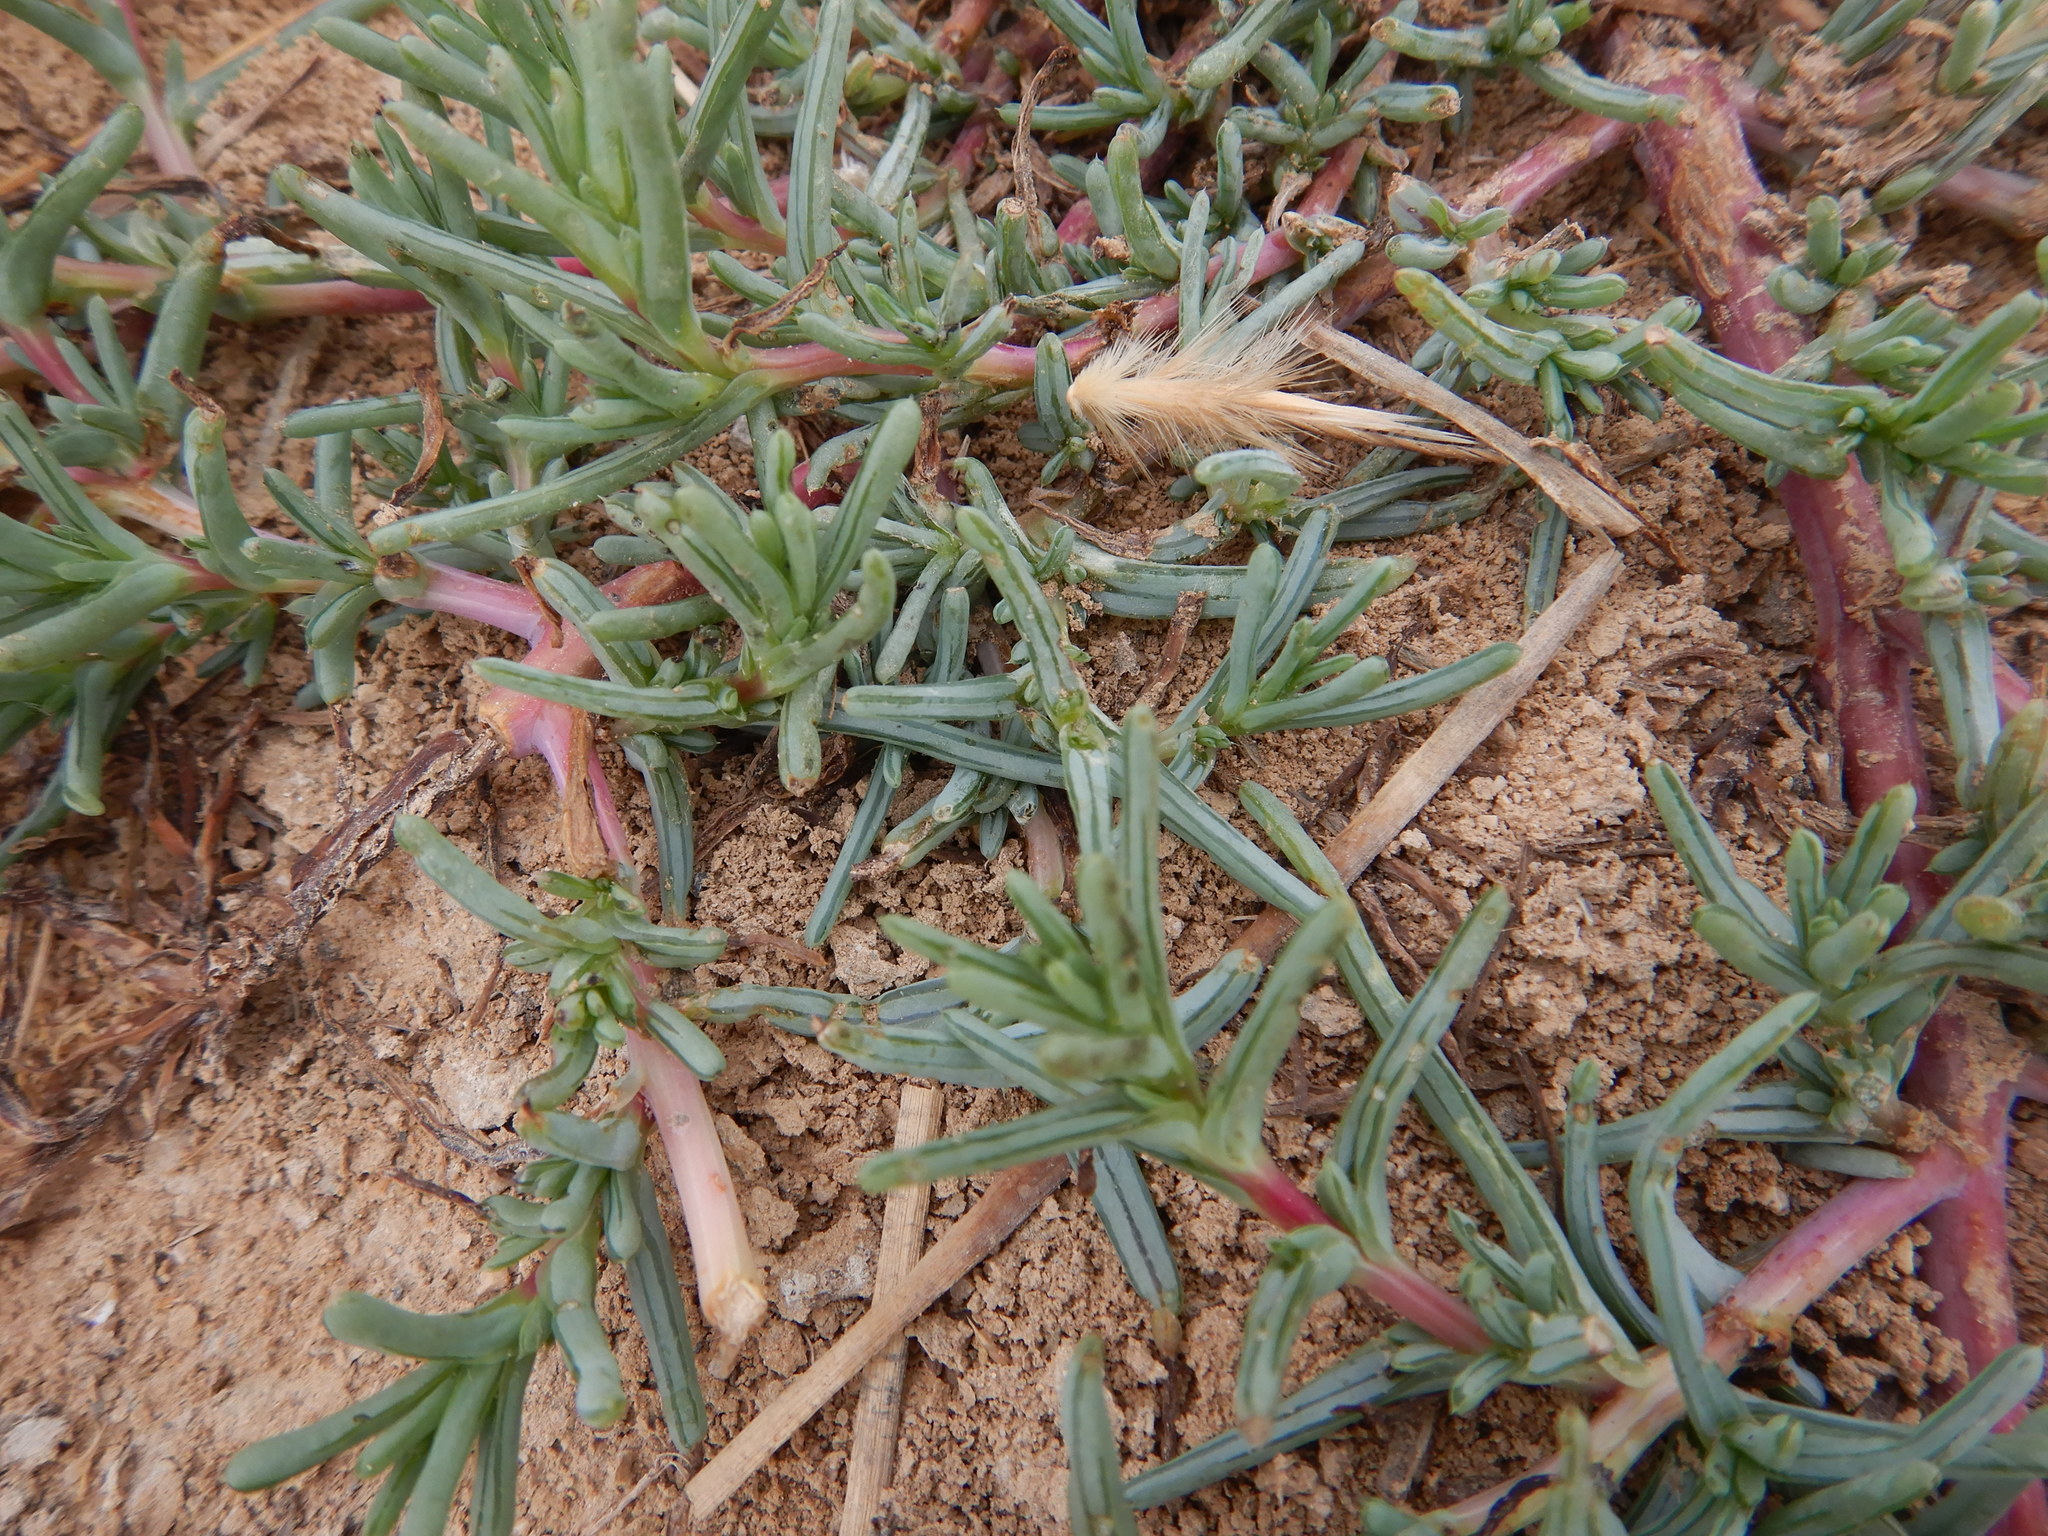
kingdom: Plantae
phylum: Tracheophyta
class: Magnoliopsida
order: Caryophyllales
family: Amaranthaceae
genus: Salsola
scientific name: Salsola soda
